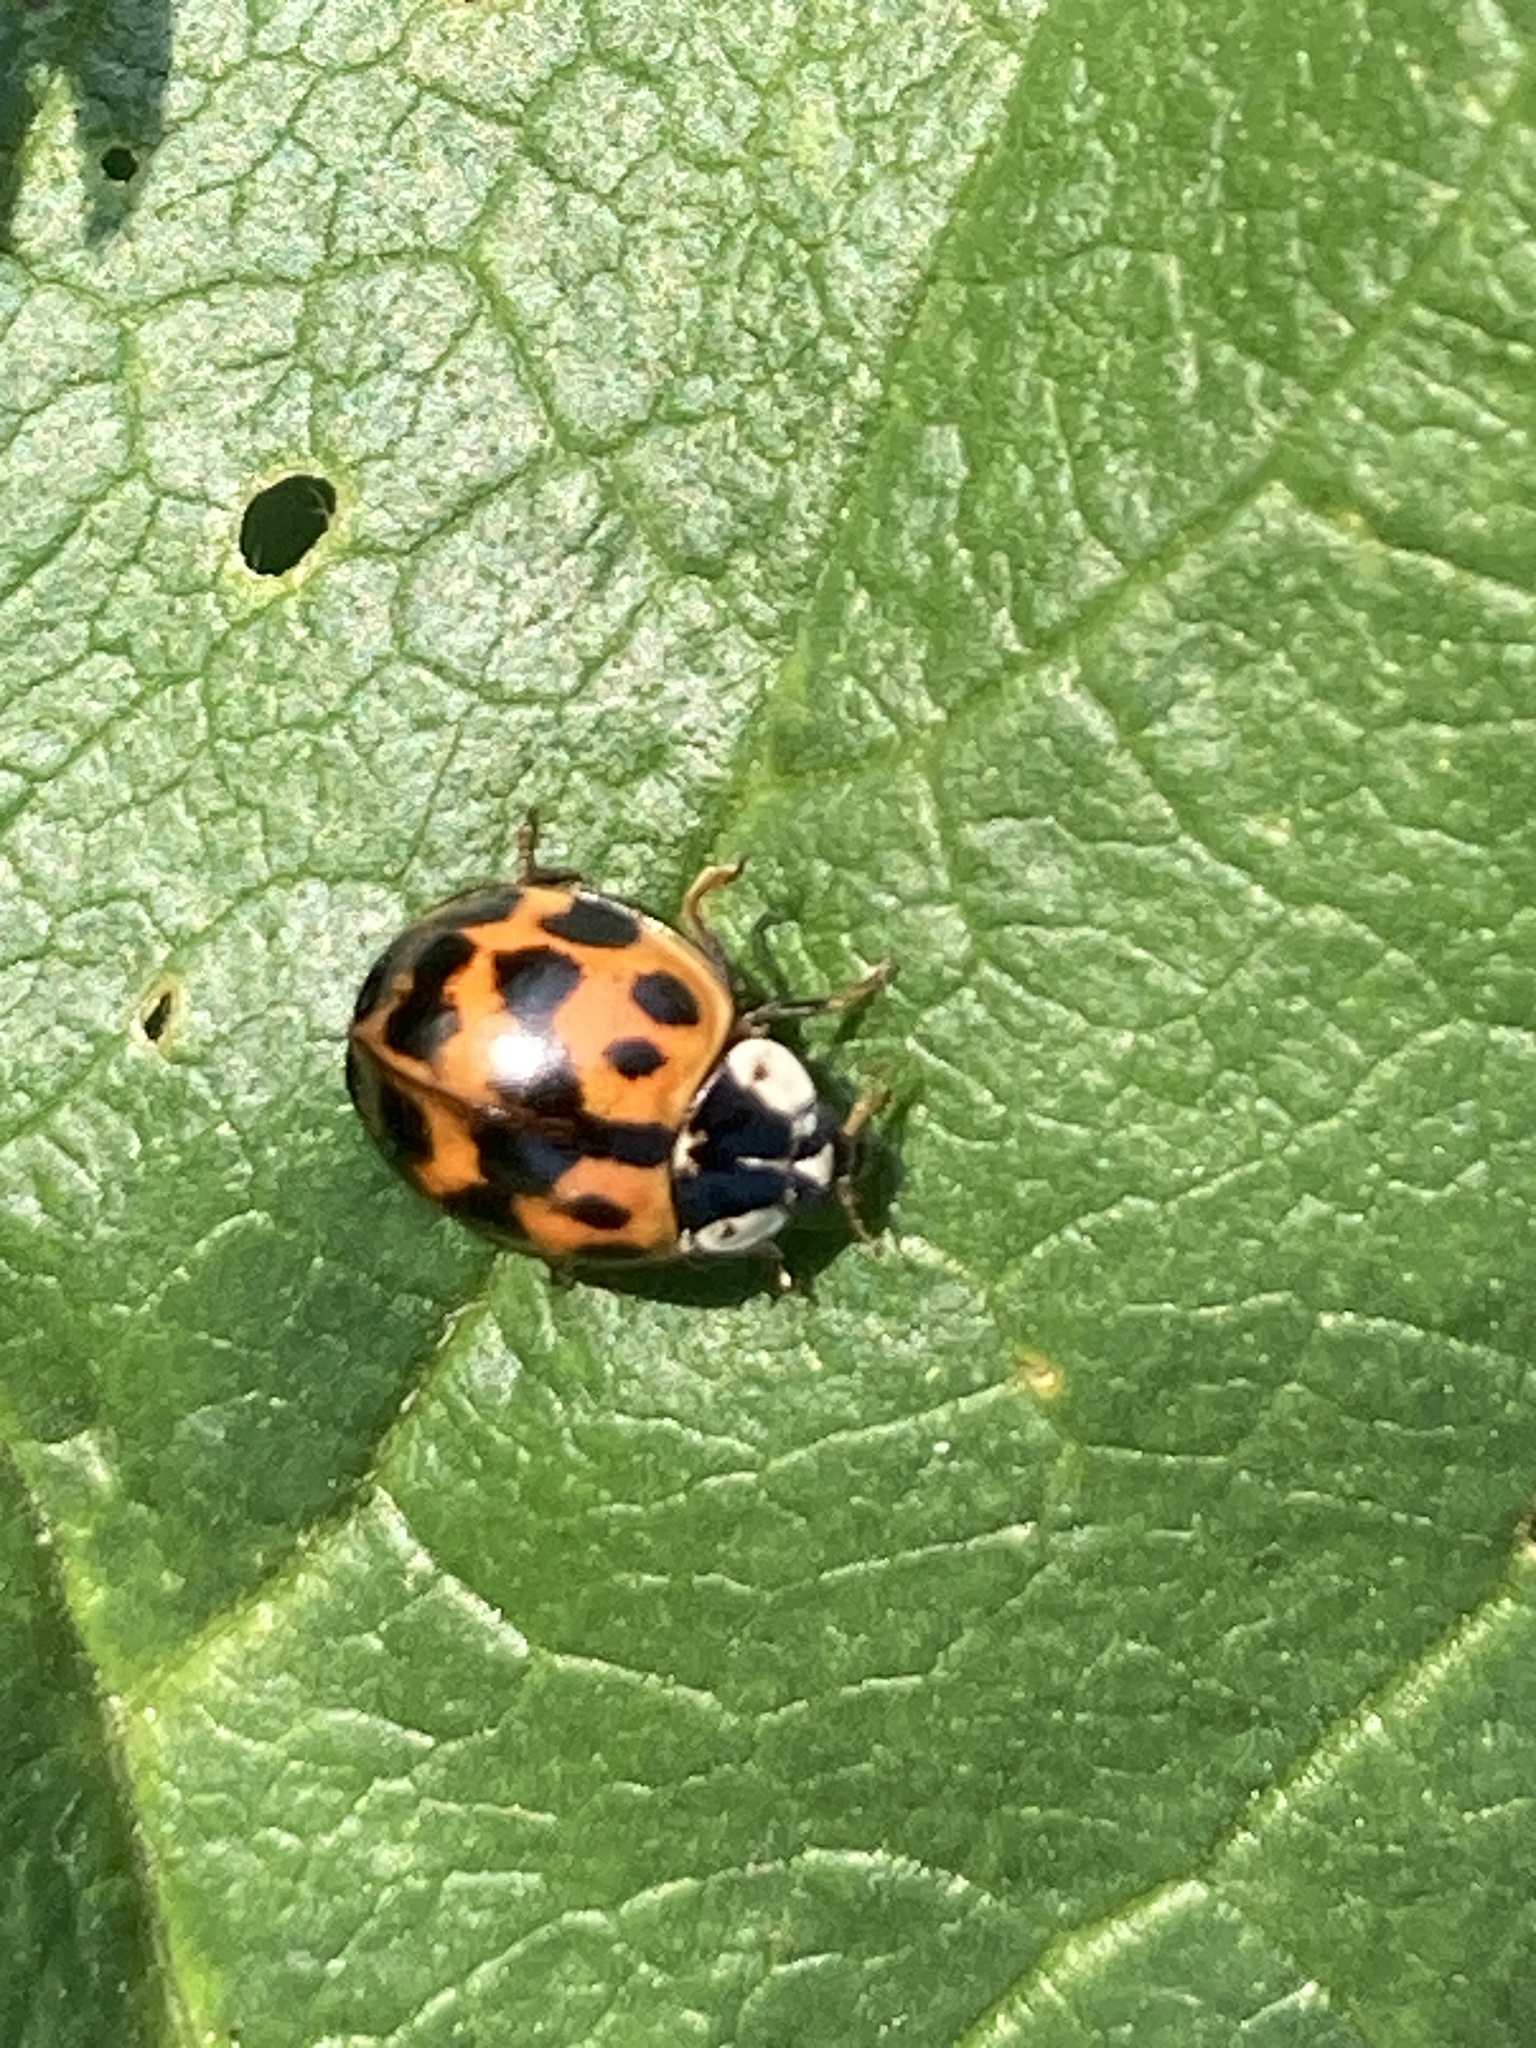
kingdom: Animalia
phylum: Arthropoda
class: Insecta
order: Coleoptera
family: Coccinellidae
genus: Harmonia
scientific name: Harmonia axyridis
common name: Harlequin ladybird
